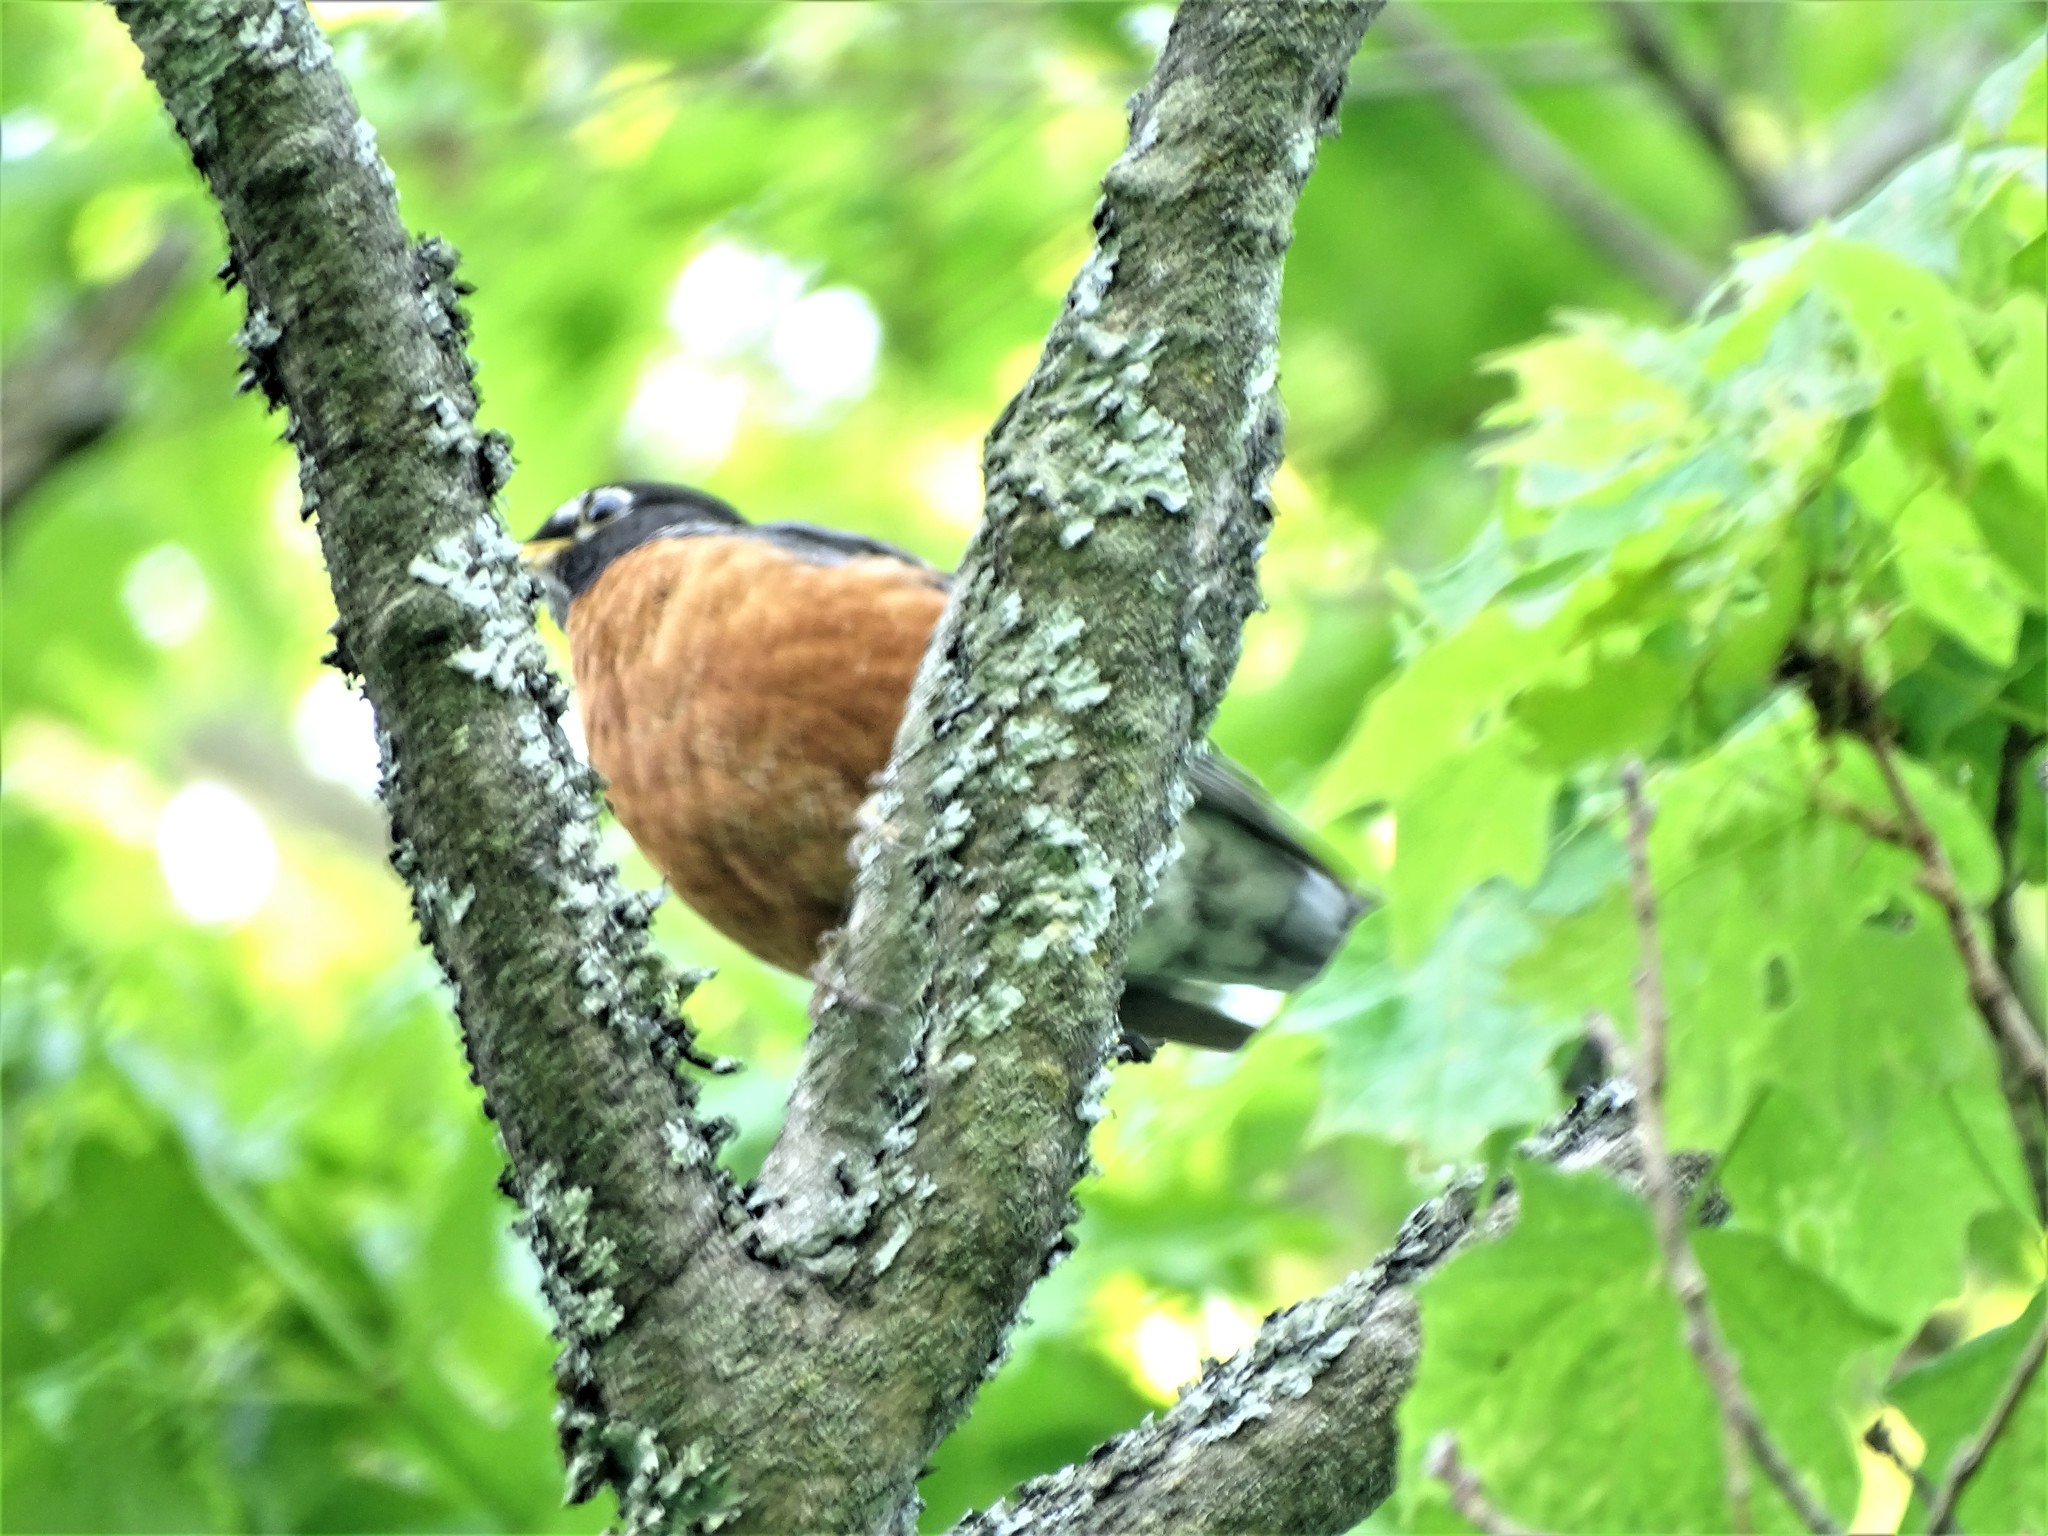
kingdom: Animalia
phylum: Chordata
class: Aves
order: Passeriformes
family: Turdidae
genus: Turdus
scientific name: Turdus migratorius
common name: American robin
